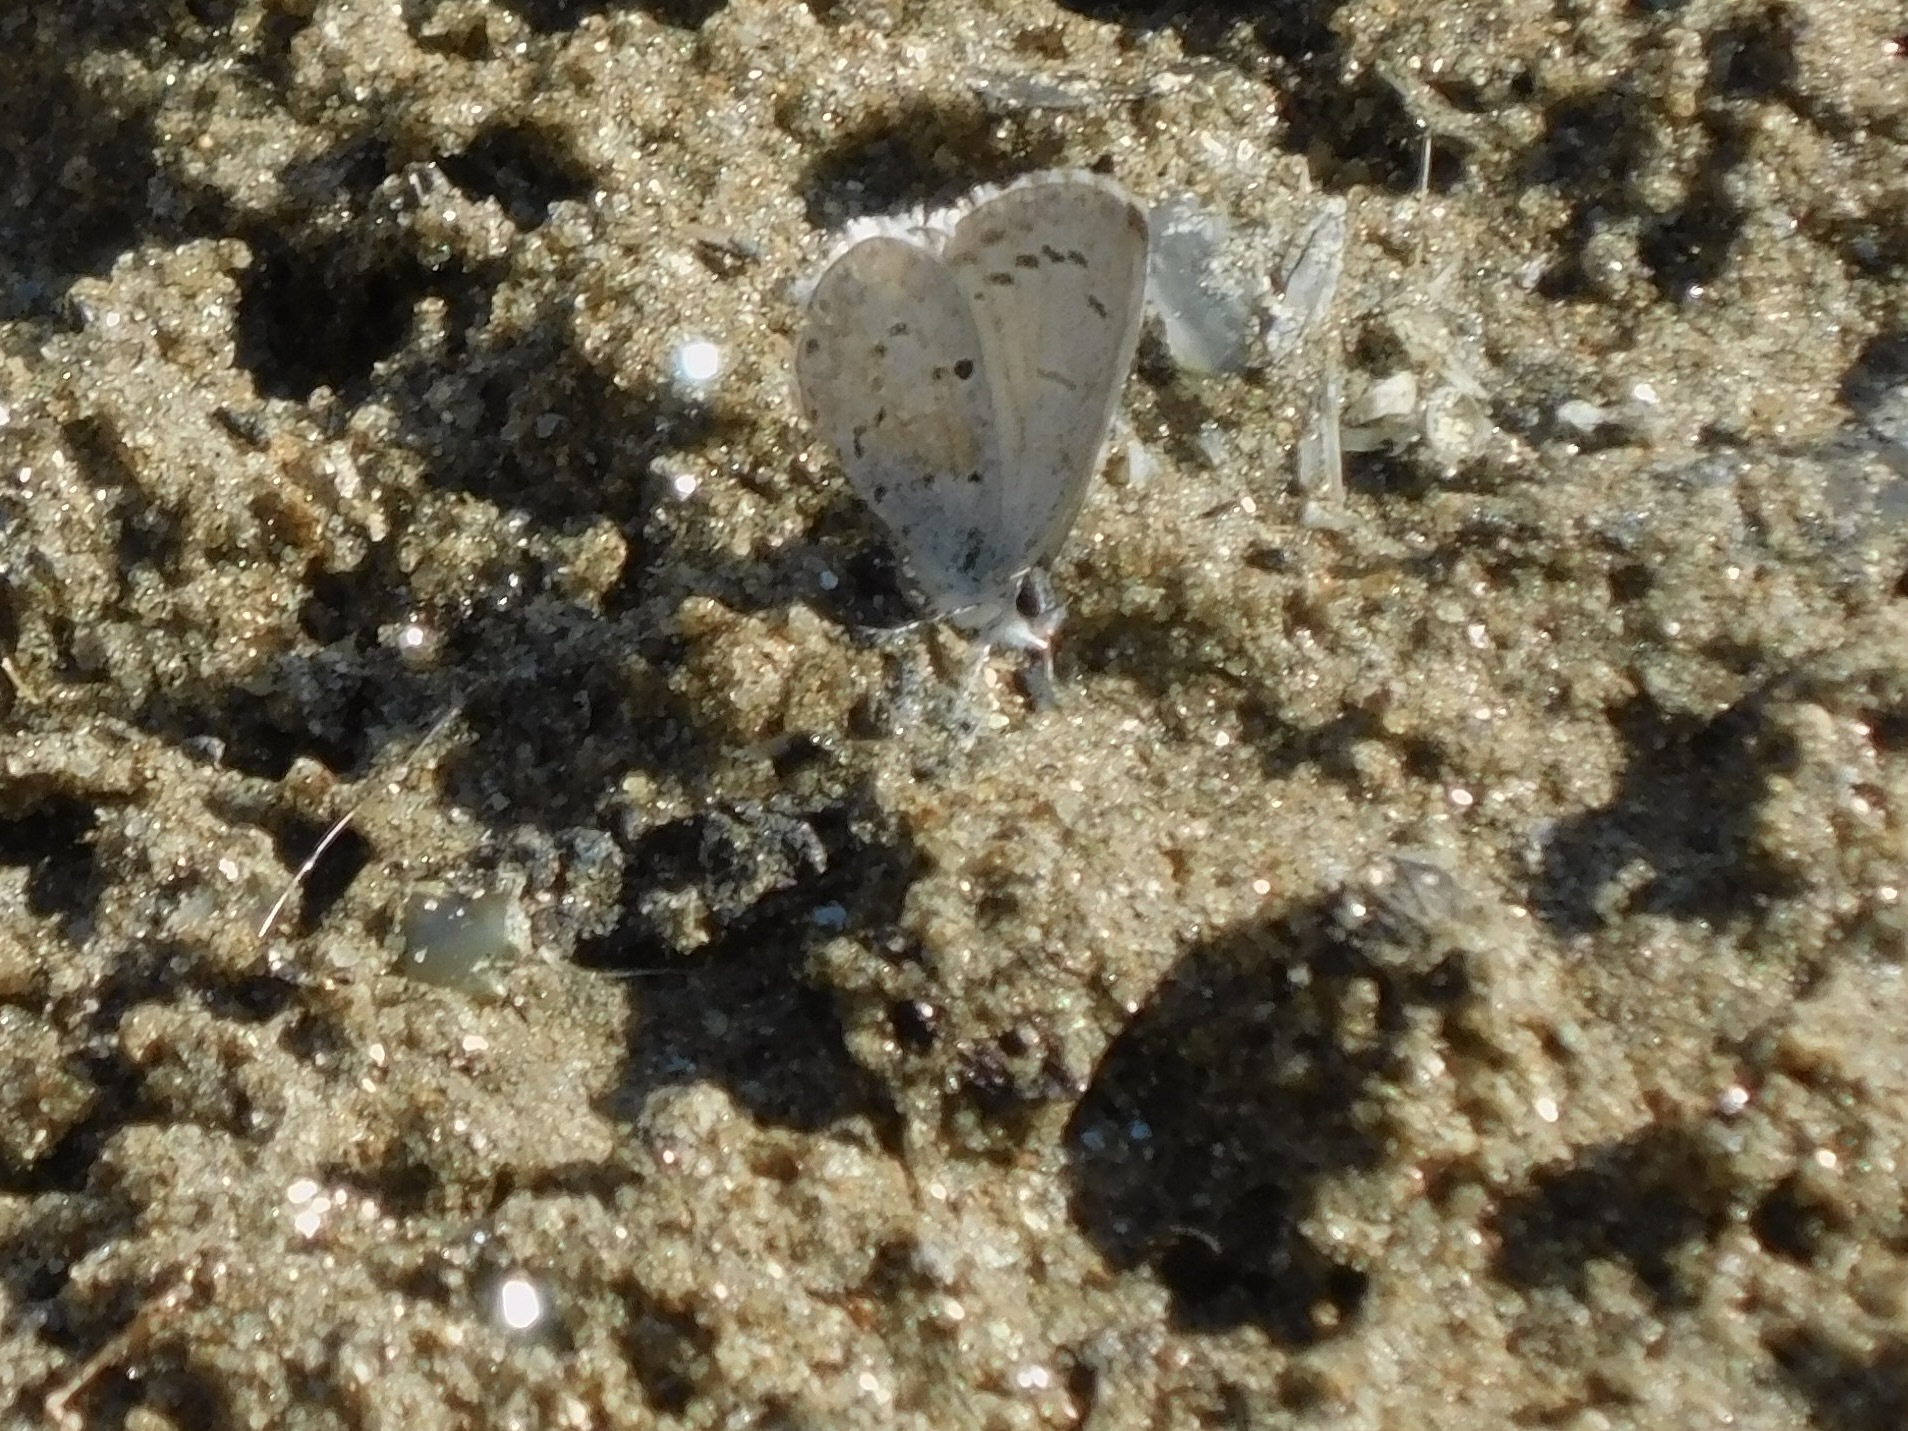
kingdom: Animalia
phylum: Arthropoda
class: Insecta
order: Lepidoptera
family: Lycaenidae
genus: Cyaniris
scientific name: Cyaniris neglecta
